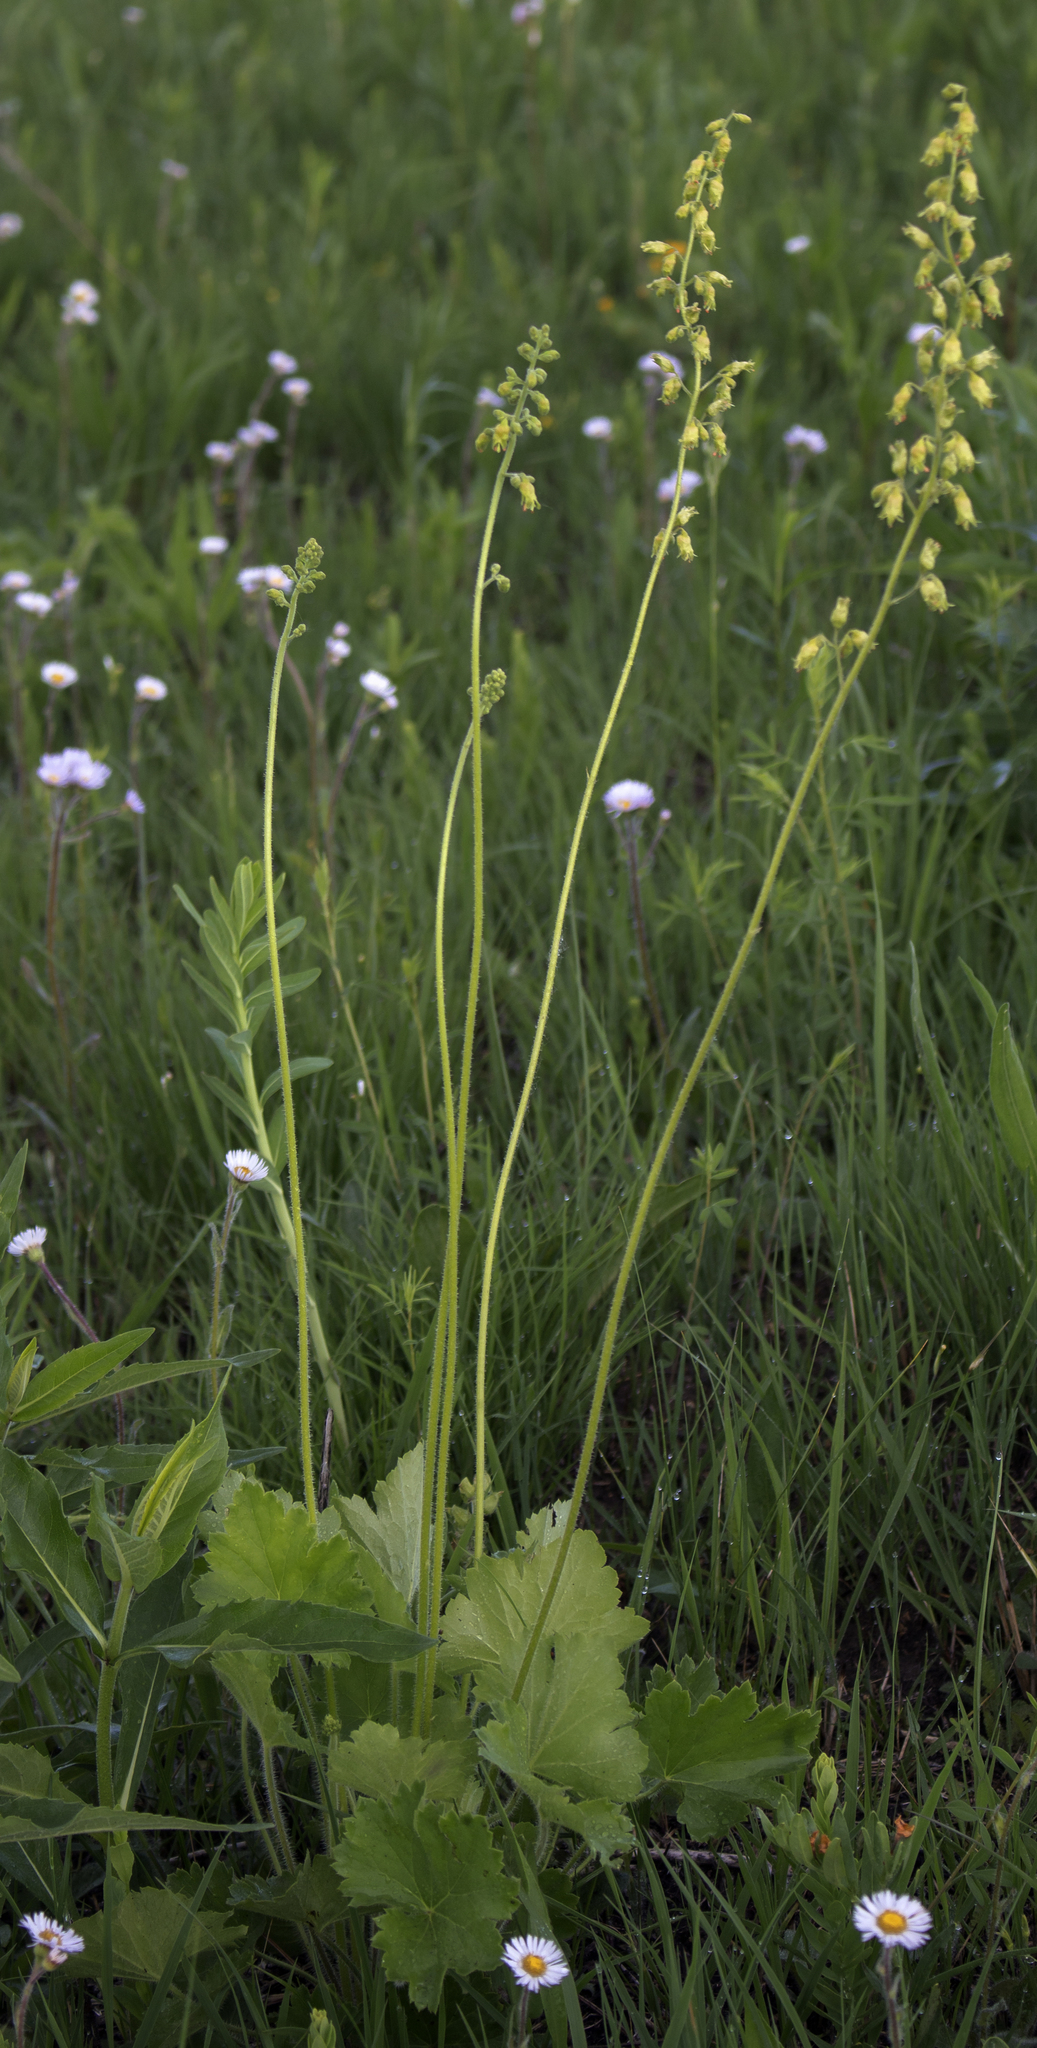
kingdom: Plantae
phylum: Tracheophyta
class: Magnoliopsida
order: Saxifragales
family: Saxifragaceae
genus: Heuchera
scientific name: Heuchera richardsonii
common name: Richardson's alumroot
